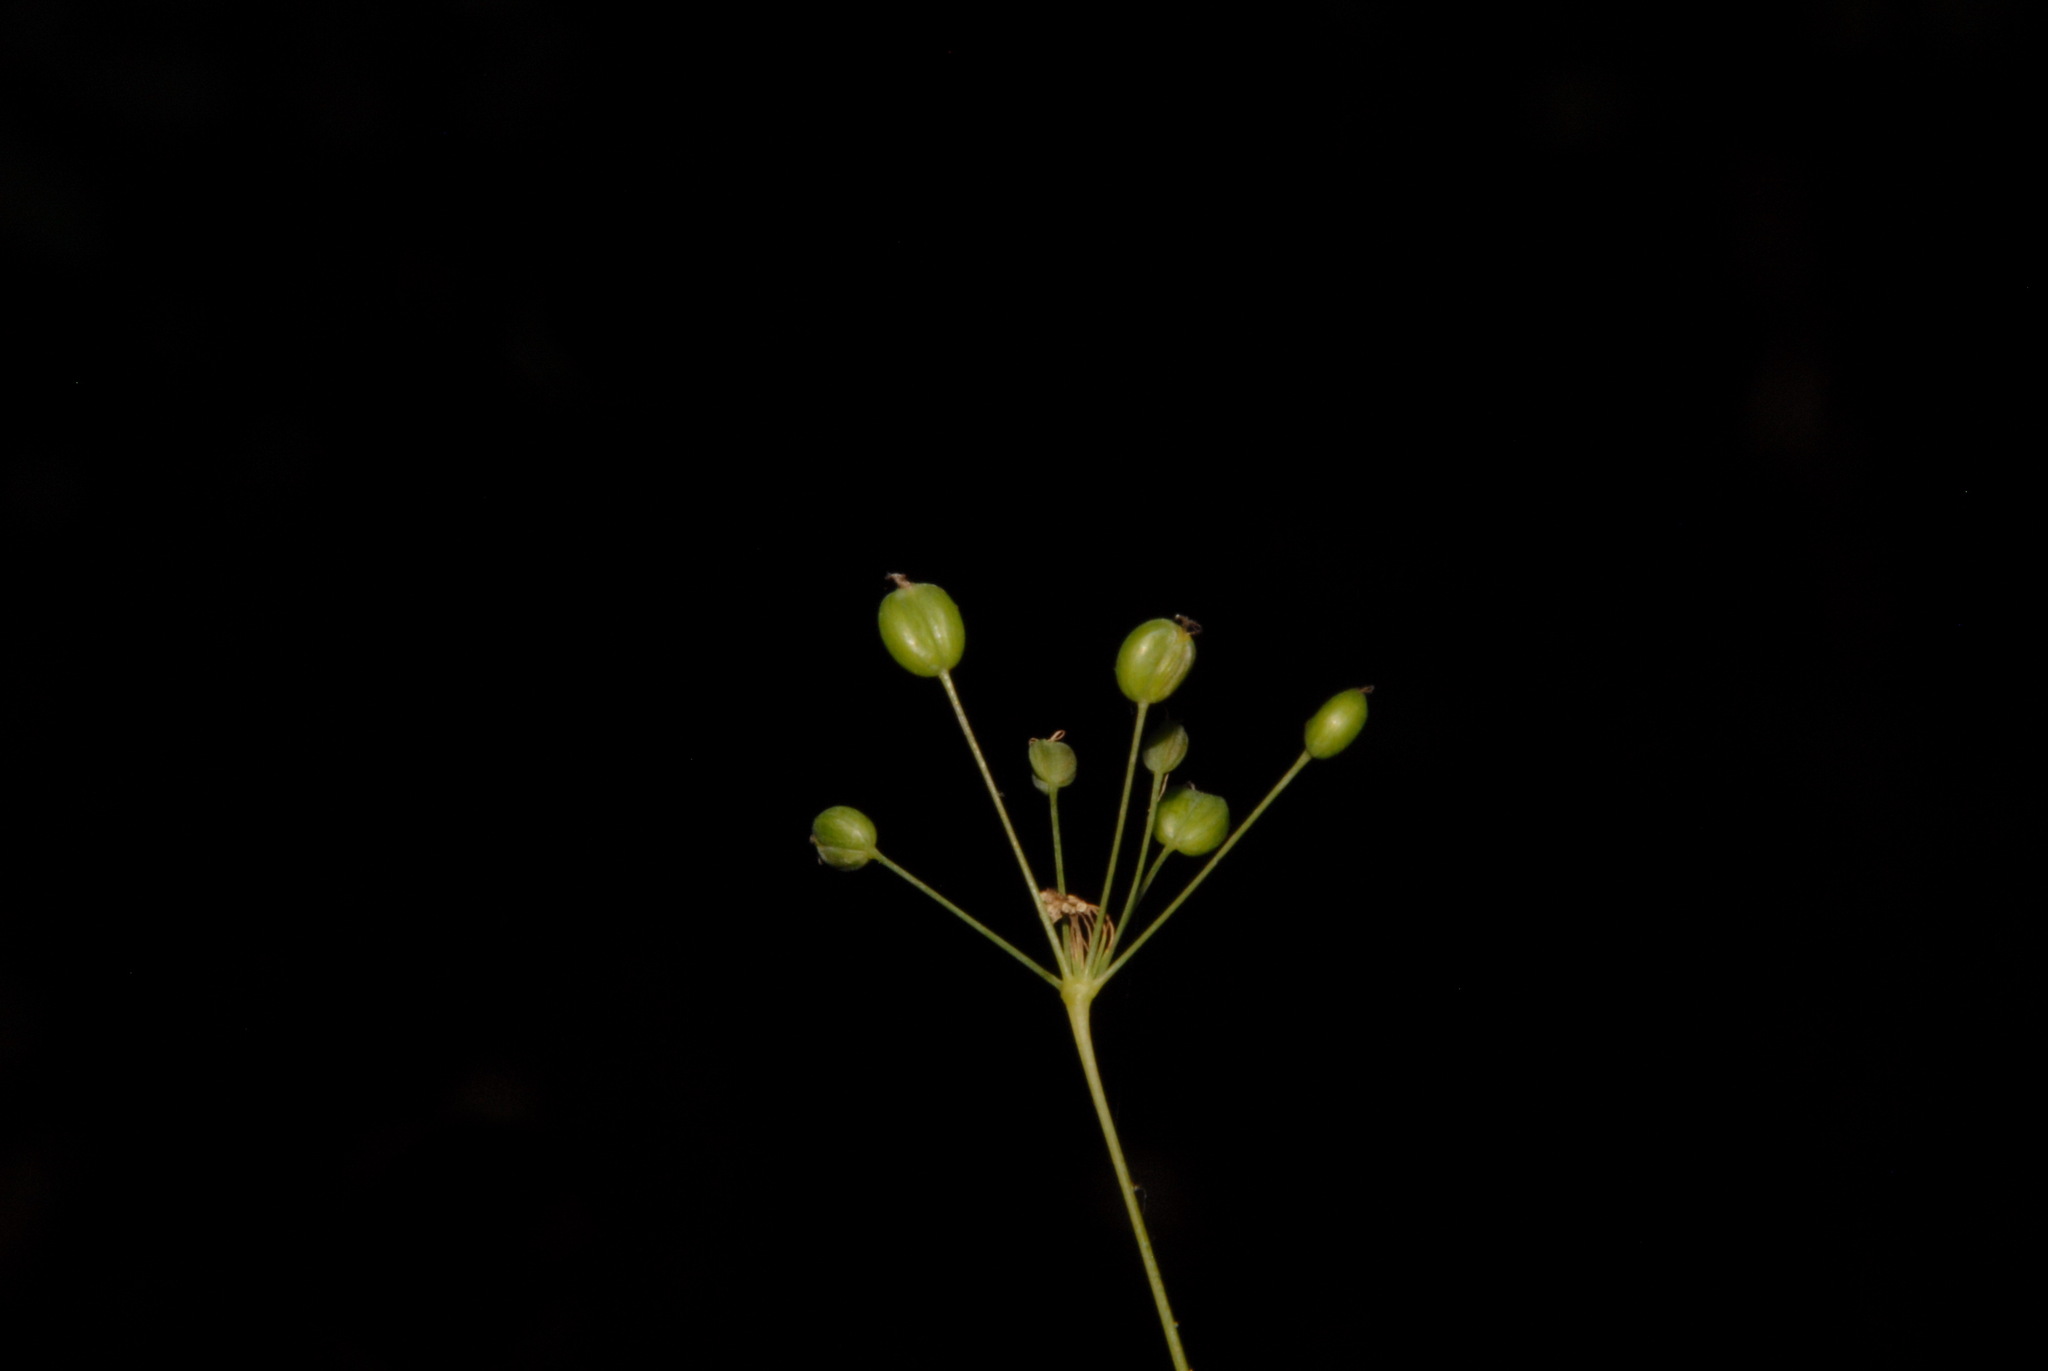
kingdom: Plantae
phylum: Tracheophyta
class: Magnoliopsida
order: Apiales
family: Apiaceae
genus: Taenidia
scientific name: Taenidia integerrima
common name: Golden alexander
